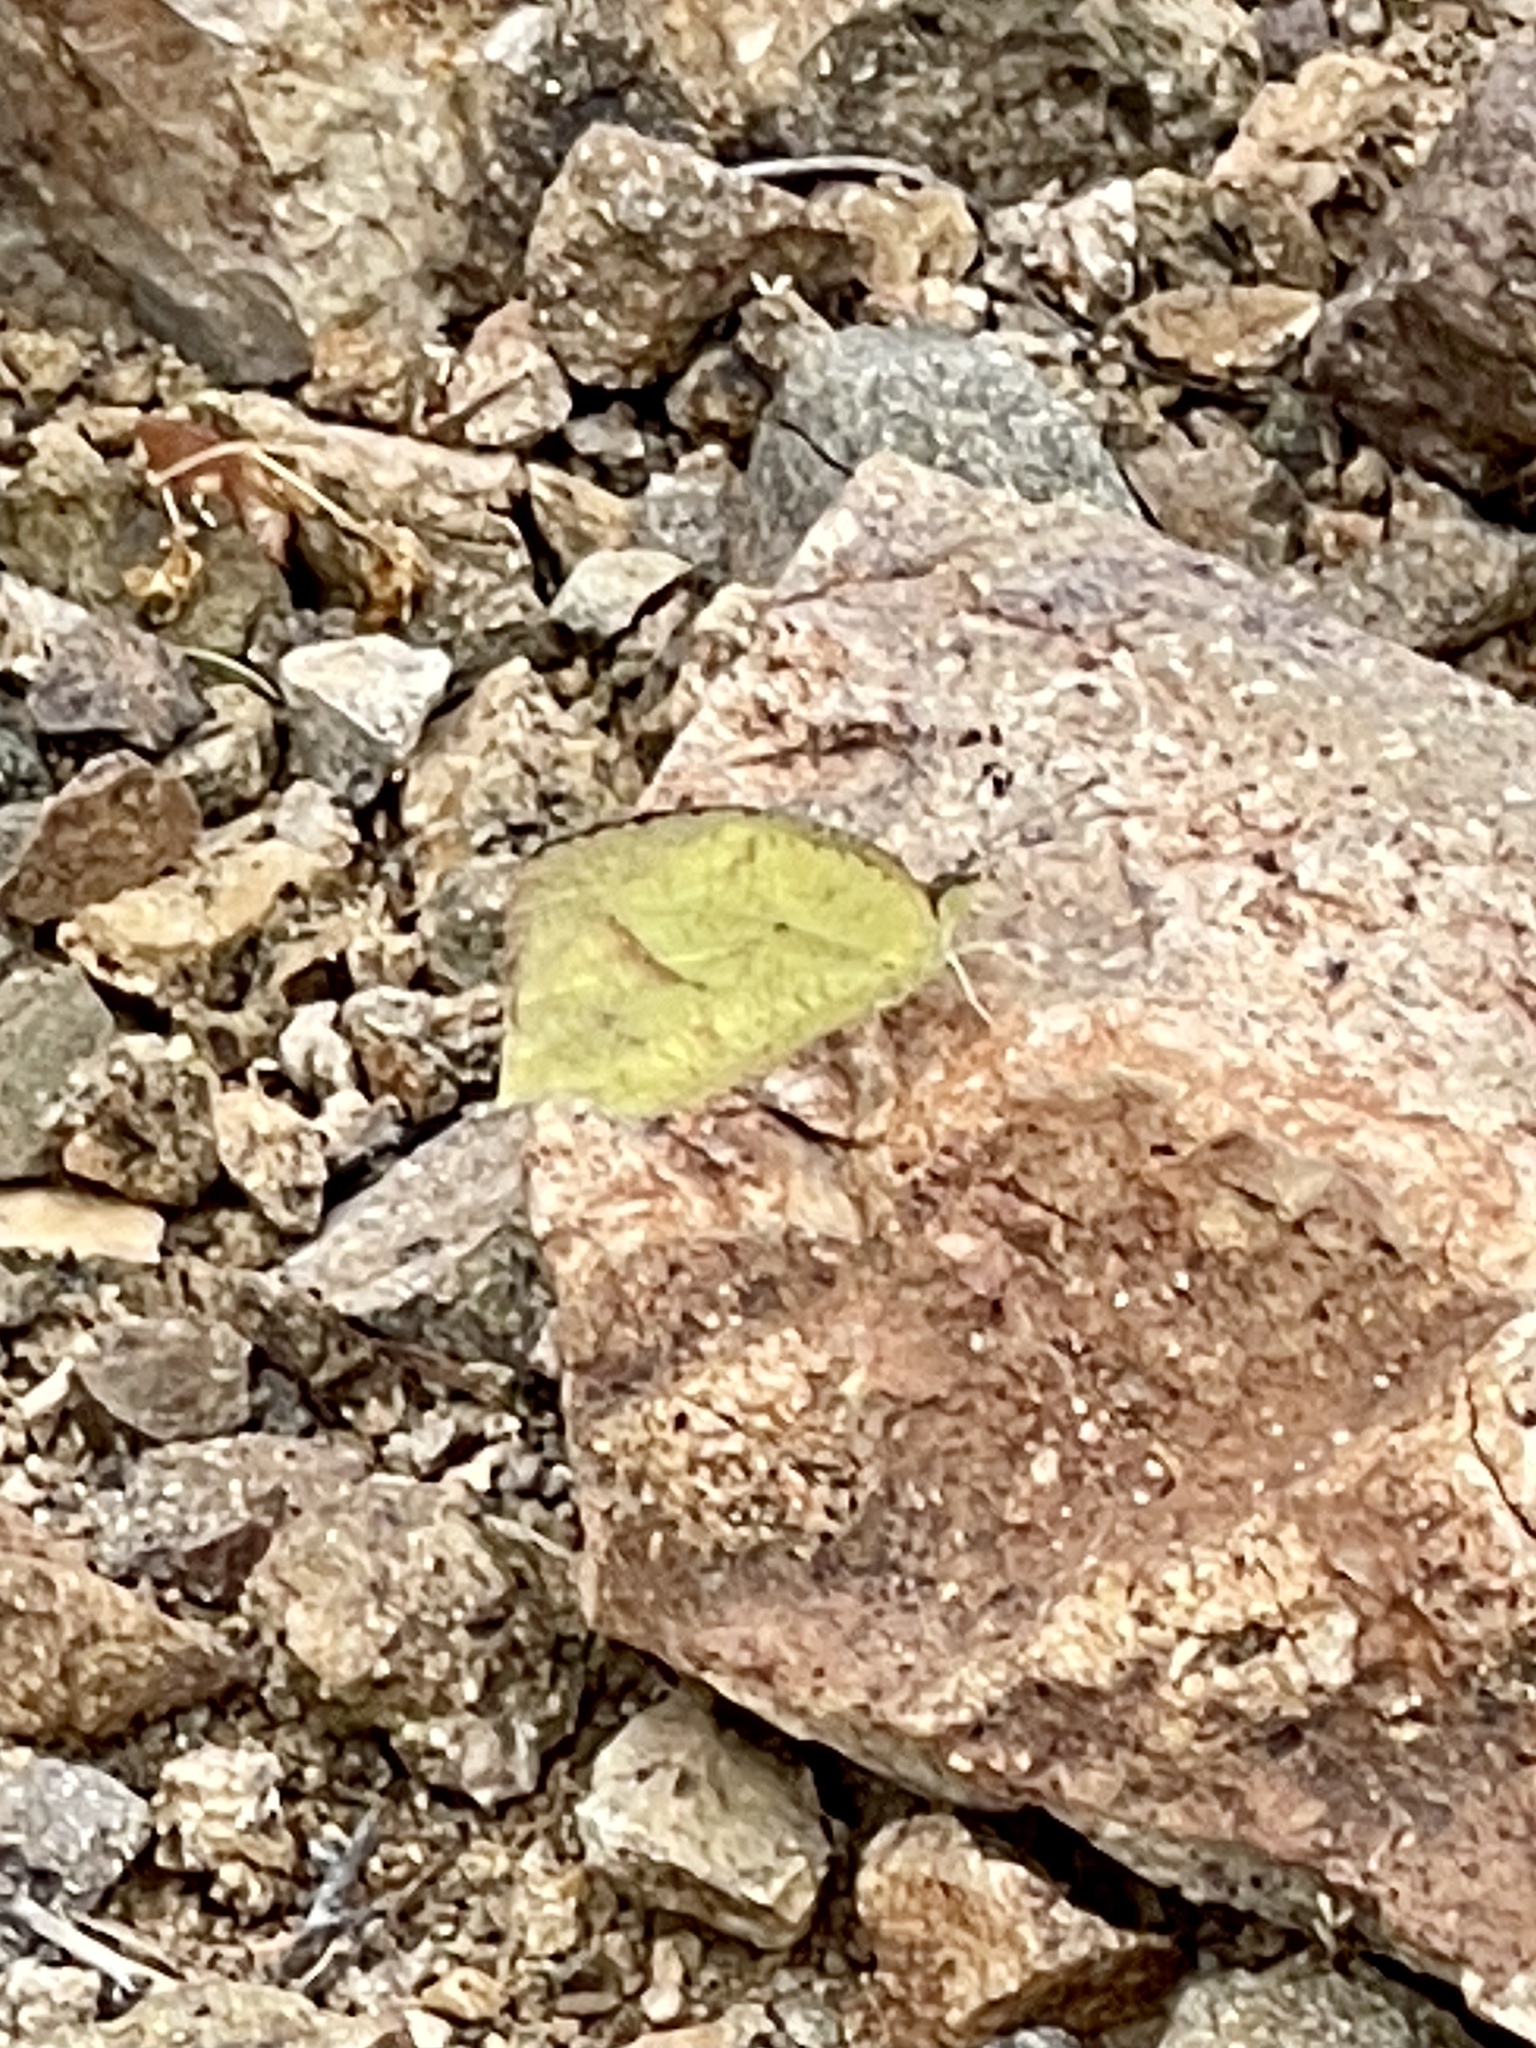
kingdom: Animalia
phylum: Arthropoda
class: Insecta
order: Lepidoptera
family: Pieridae
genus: Abaeis
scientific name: Abaeis mexicana
